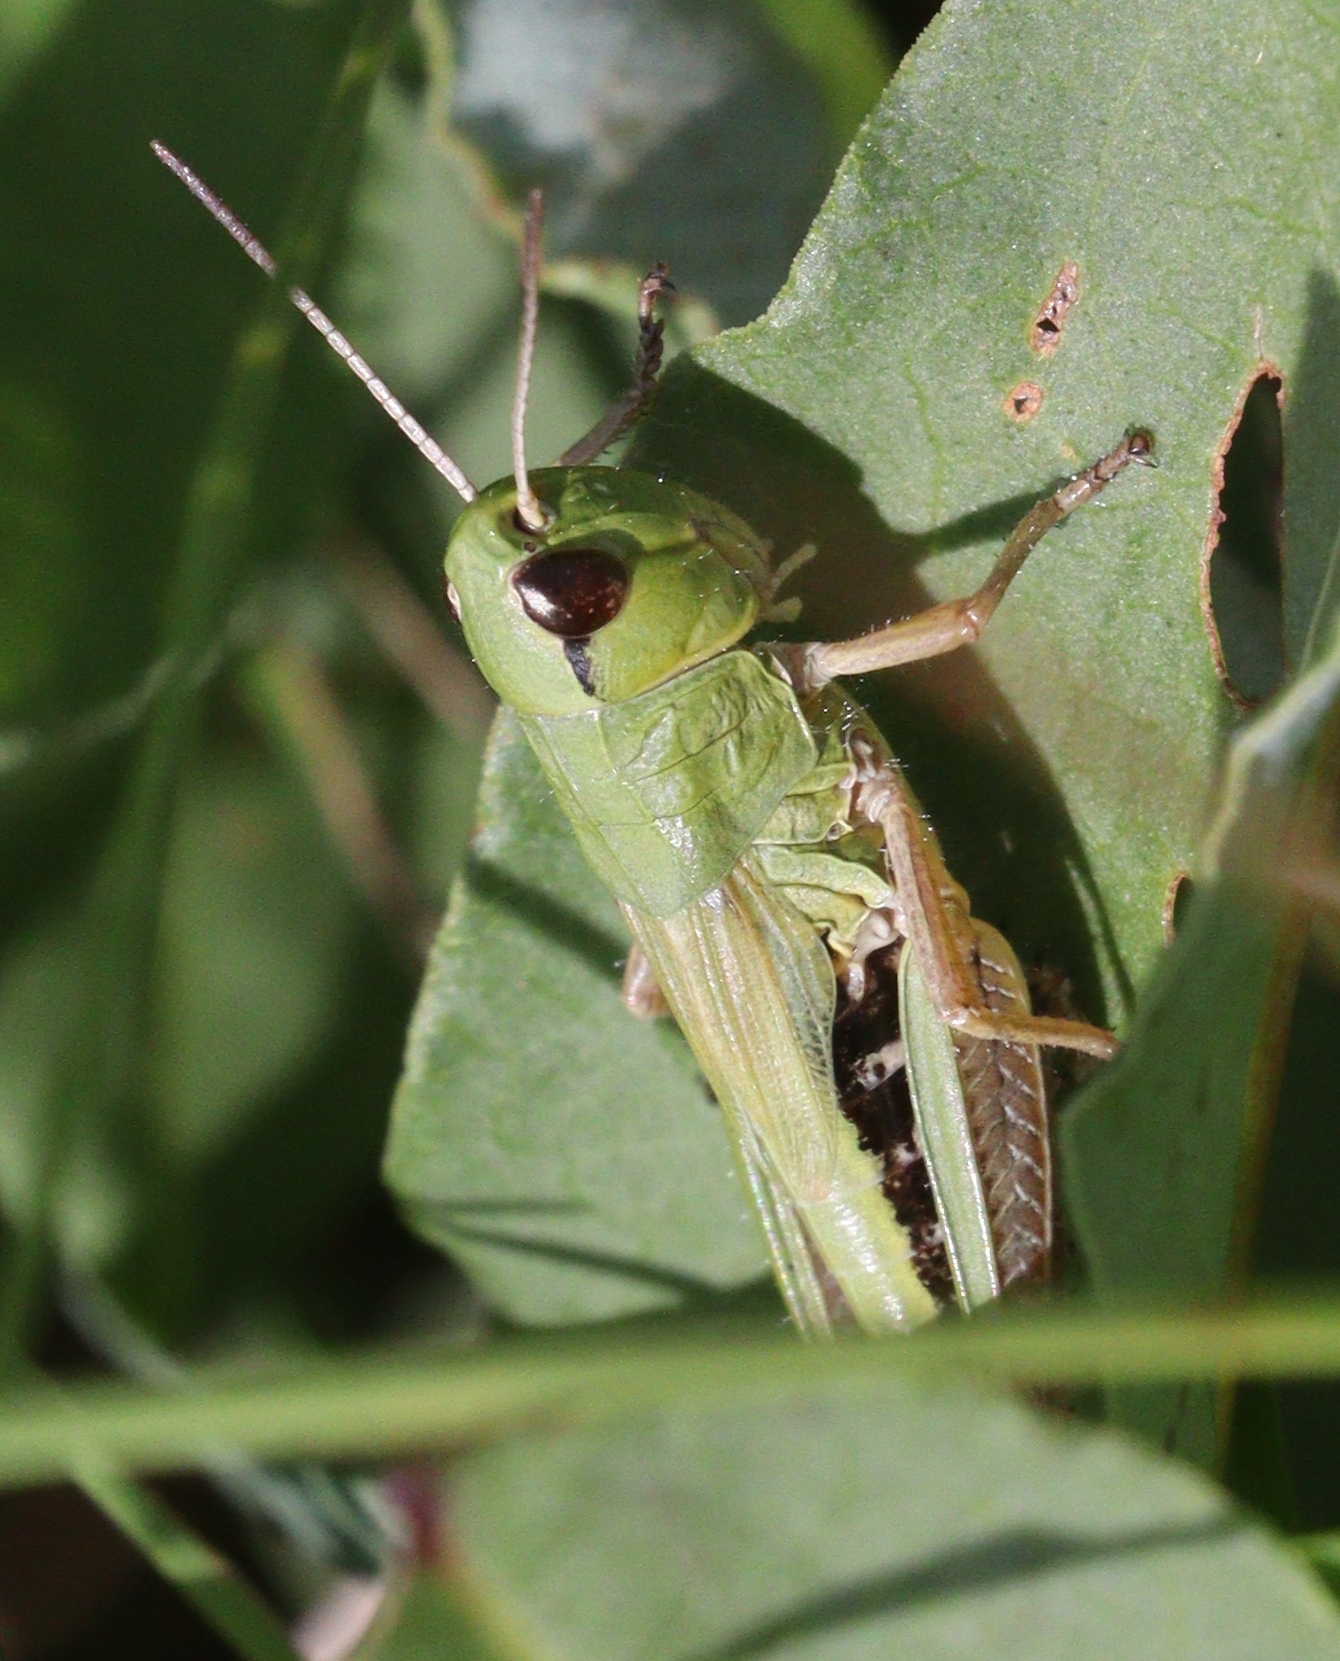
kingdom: Animalia
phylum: Arthropoda
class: Insecta
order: Orthoptera
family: Acrididae
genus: Pseudochorthippus
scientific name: Pseudochorthippus parallelus
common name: Meadow grasshopper
